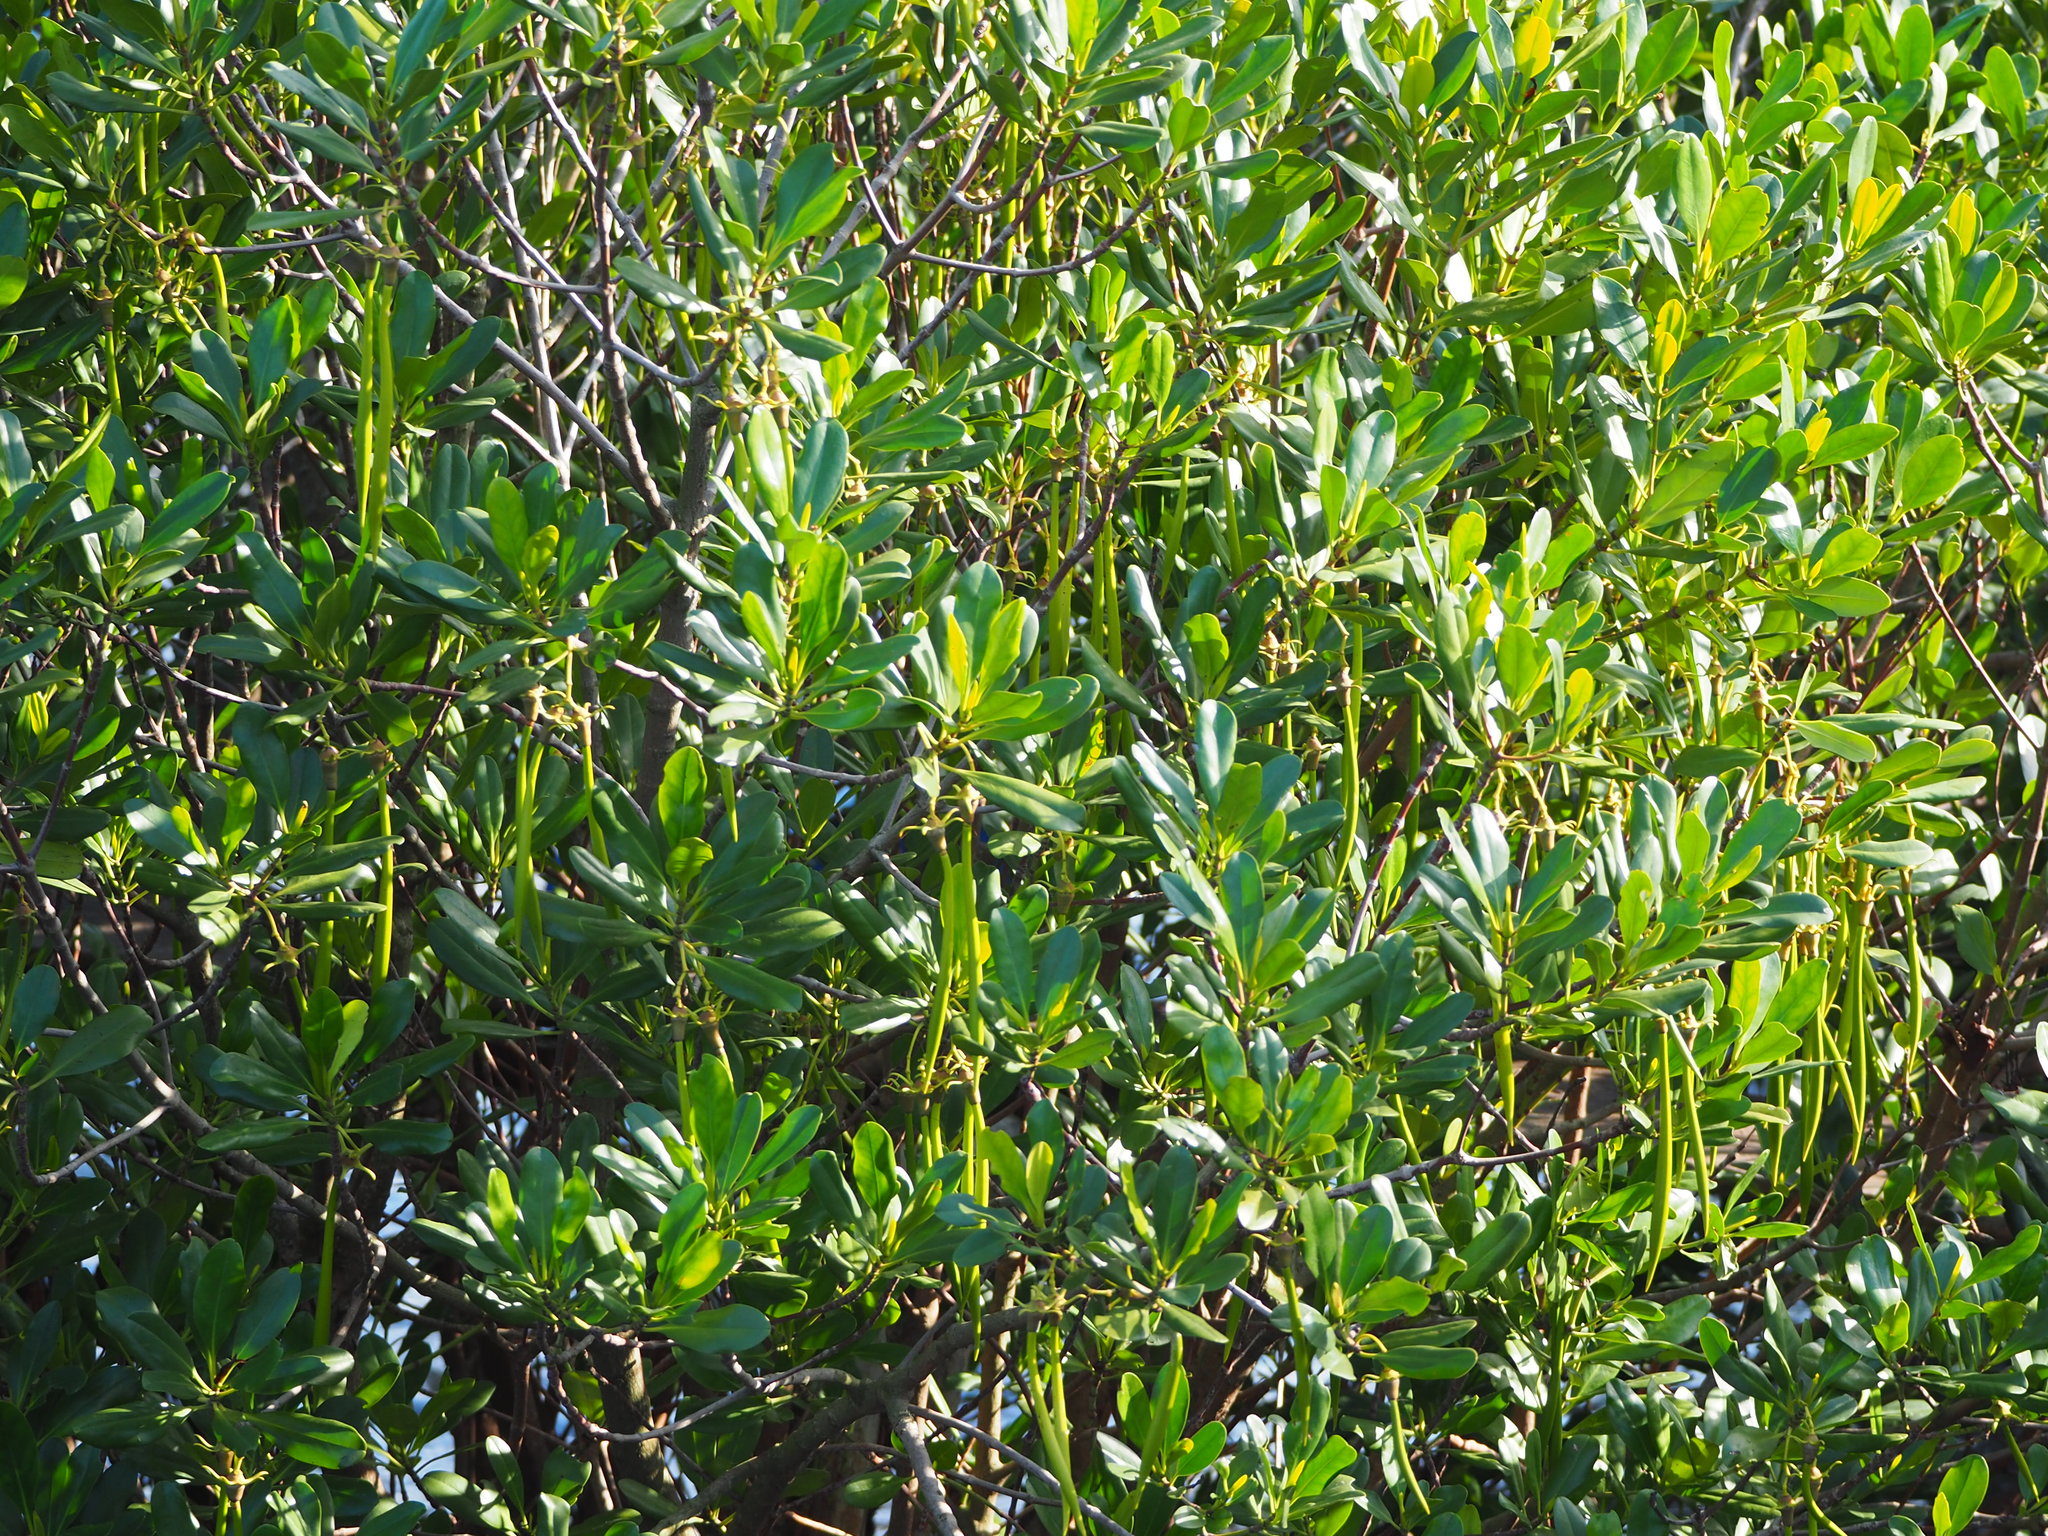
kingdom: Plantae
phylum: Tracheophyta
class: Magnoliopsida
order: Malpighiales
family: Rhizophoraceae
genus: Kandelia
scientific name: Kandelia obovata
